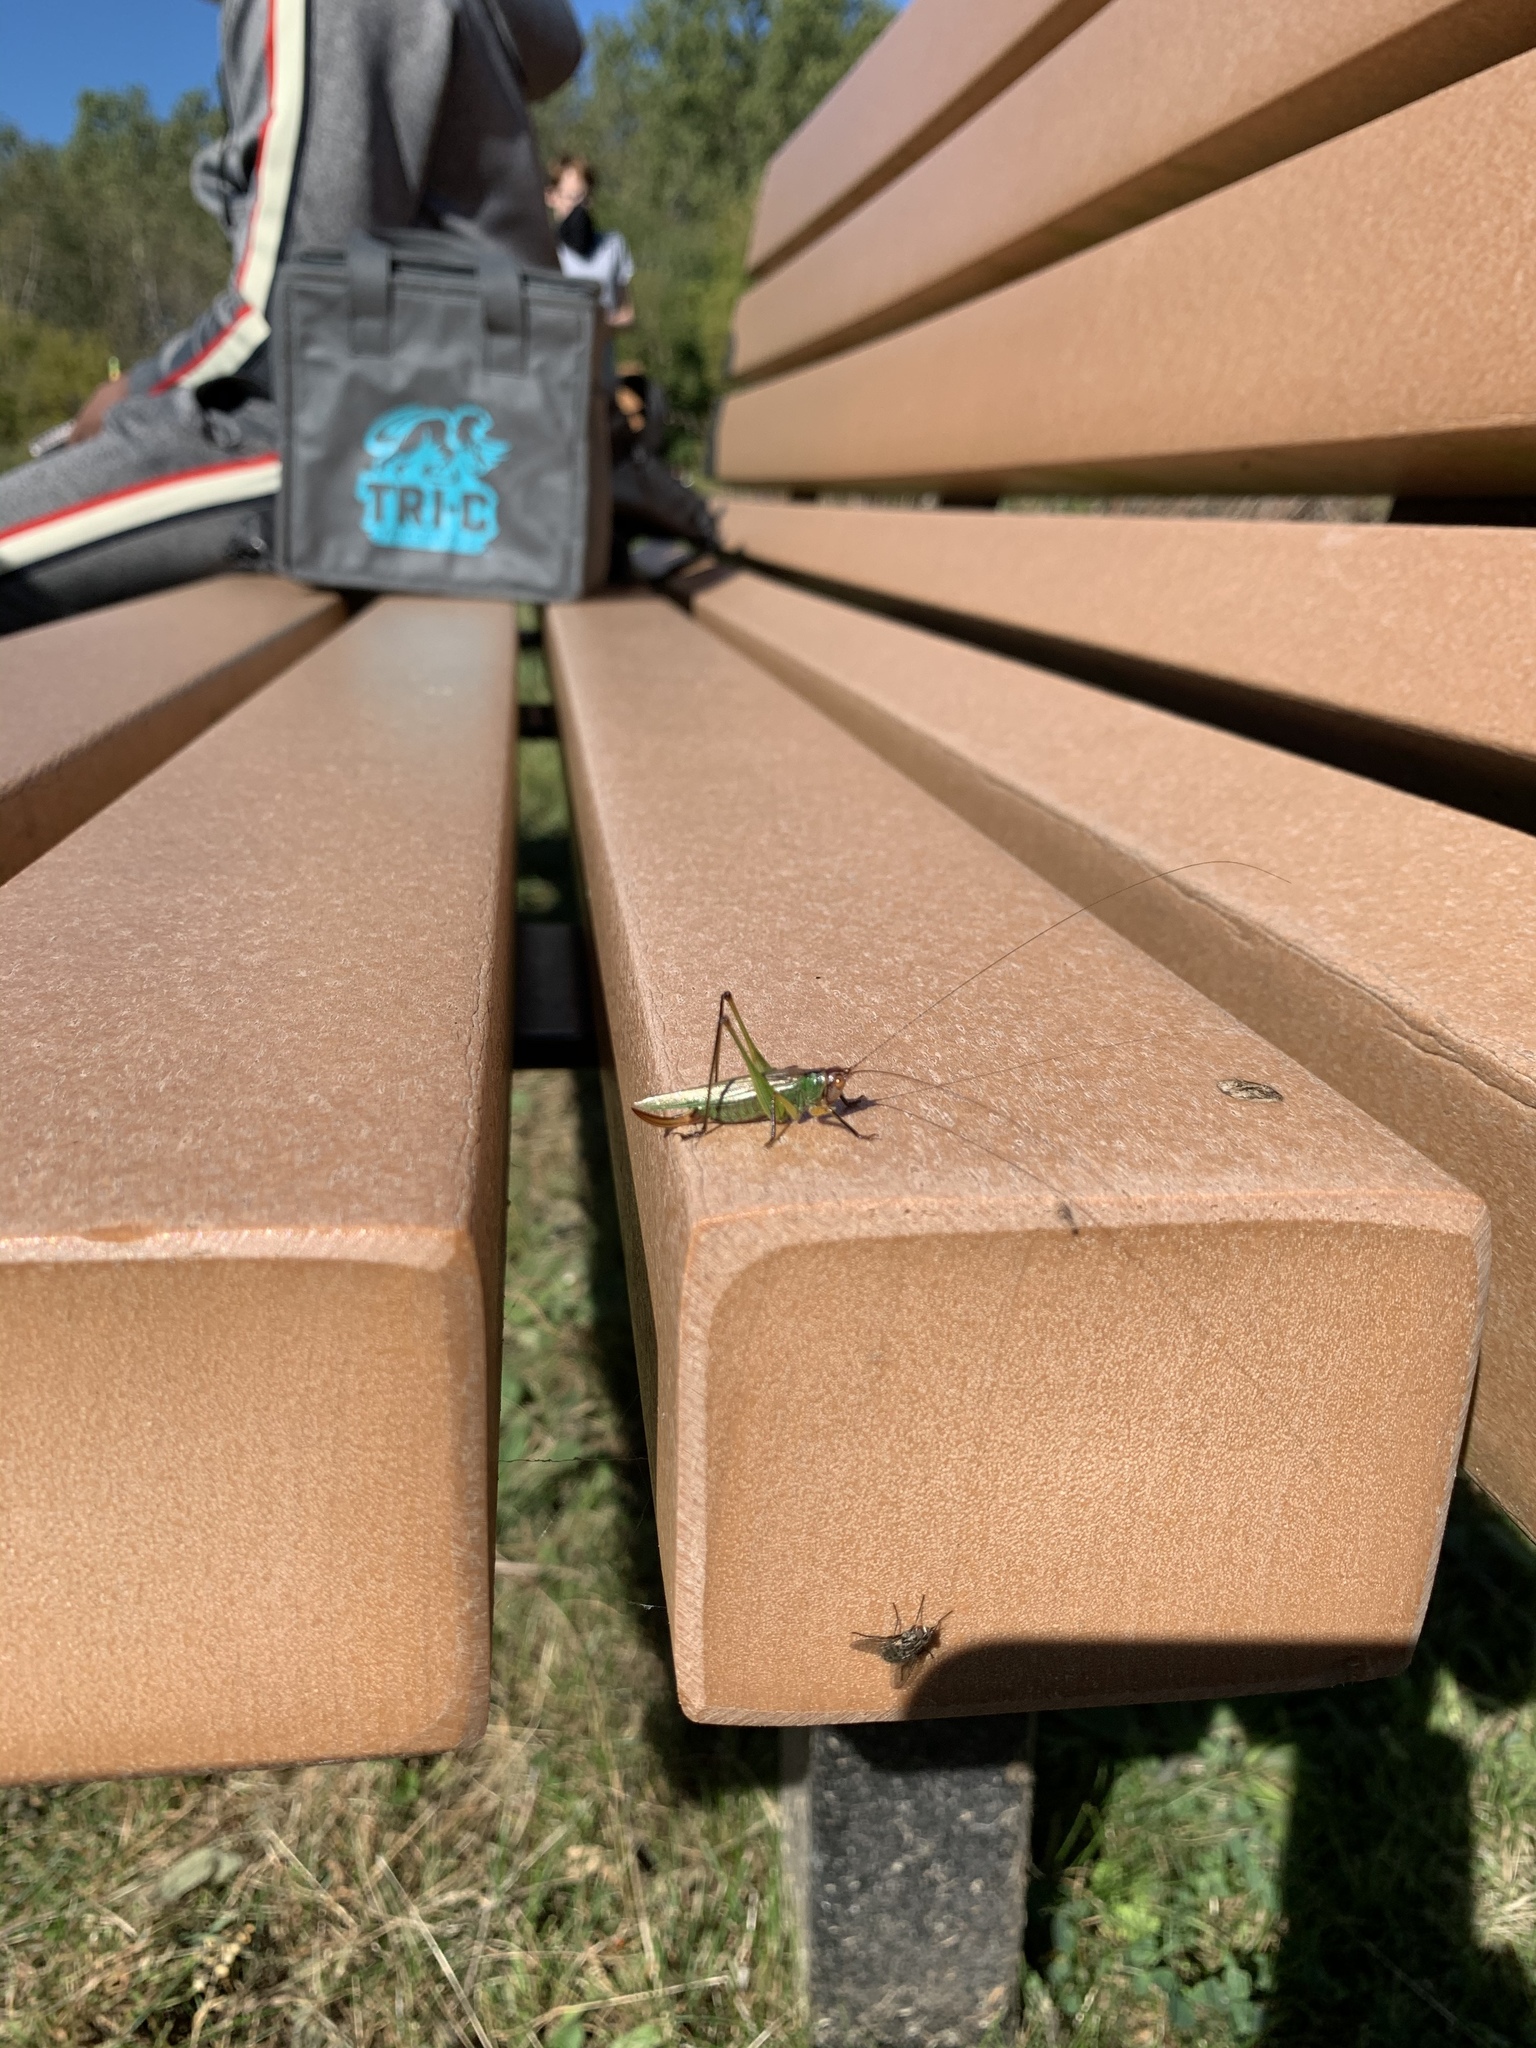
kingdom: Animalia
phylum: Arthropoda
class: Insecta
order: Orthoptera
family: Tettigoniidae
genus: Orchelimum
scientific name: Orchelimum nigripes
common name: Black-legged meadow katydid
